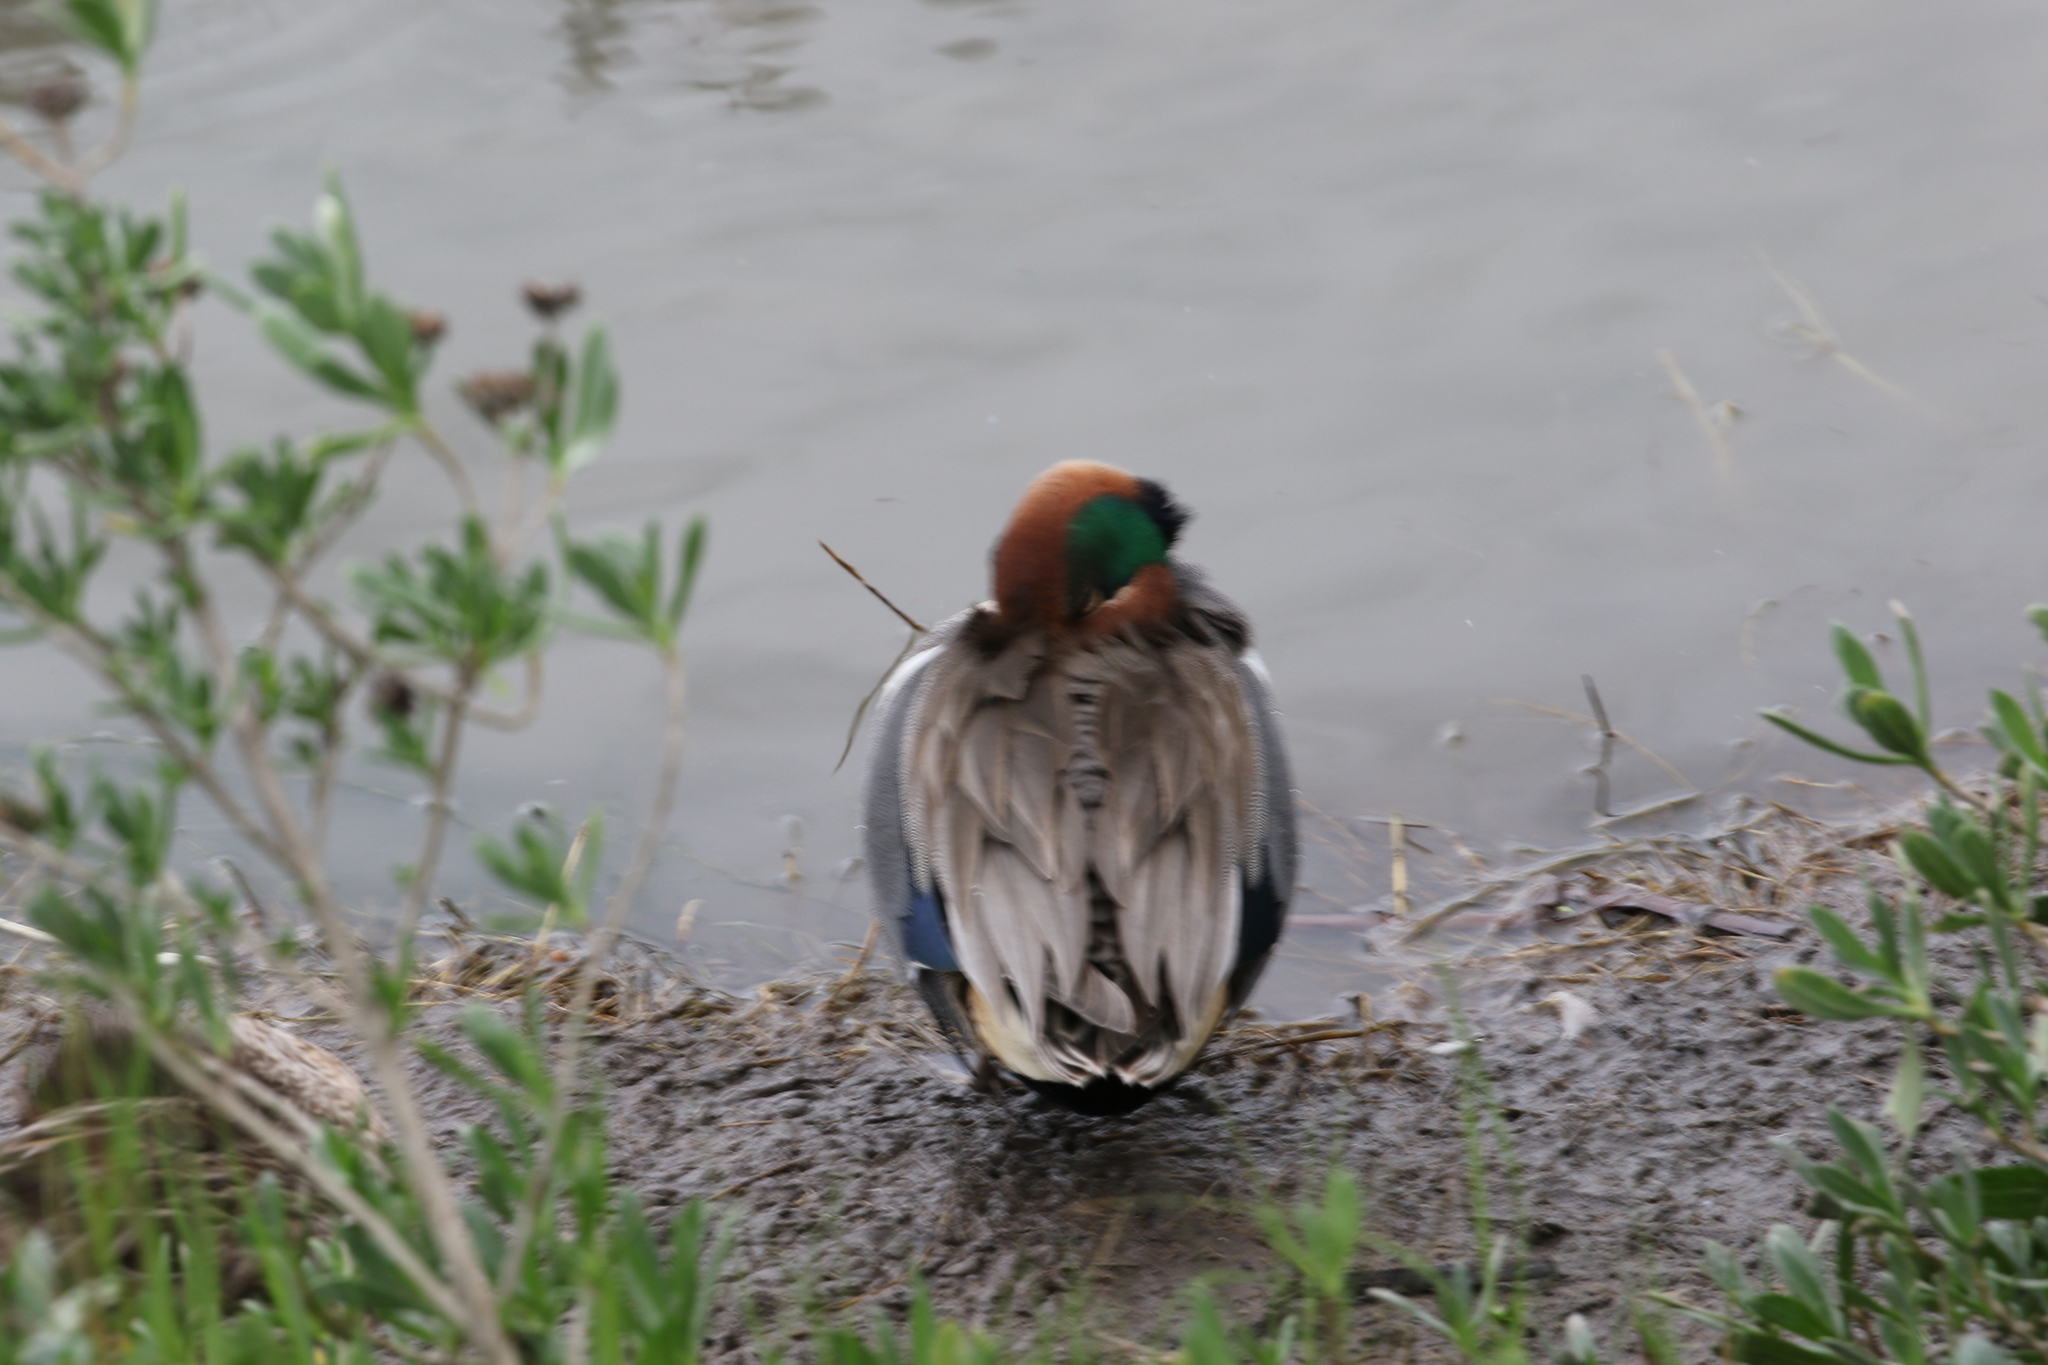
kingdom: Animalia
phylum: Chordata
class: Aves
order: Anseriformes
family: Anatidae
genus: Anas
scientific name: Anas crecca
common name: Eurasian teal
